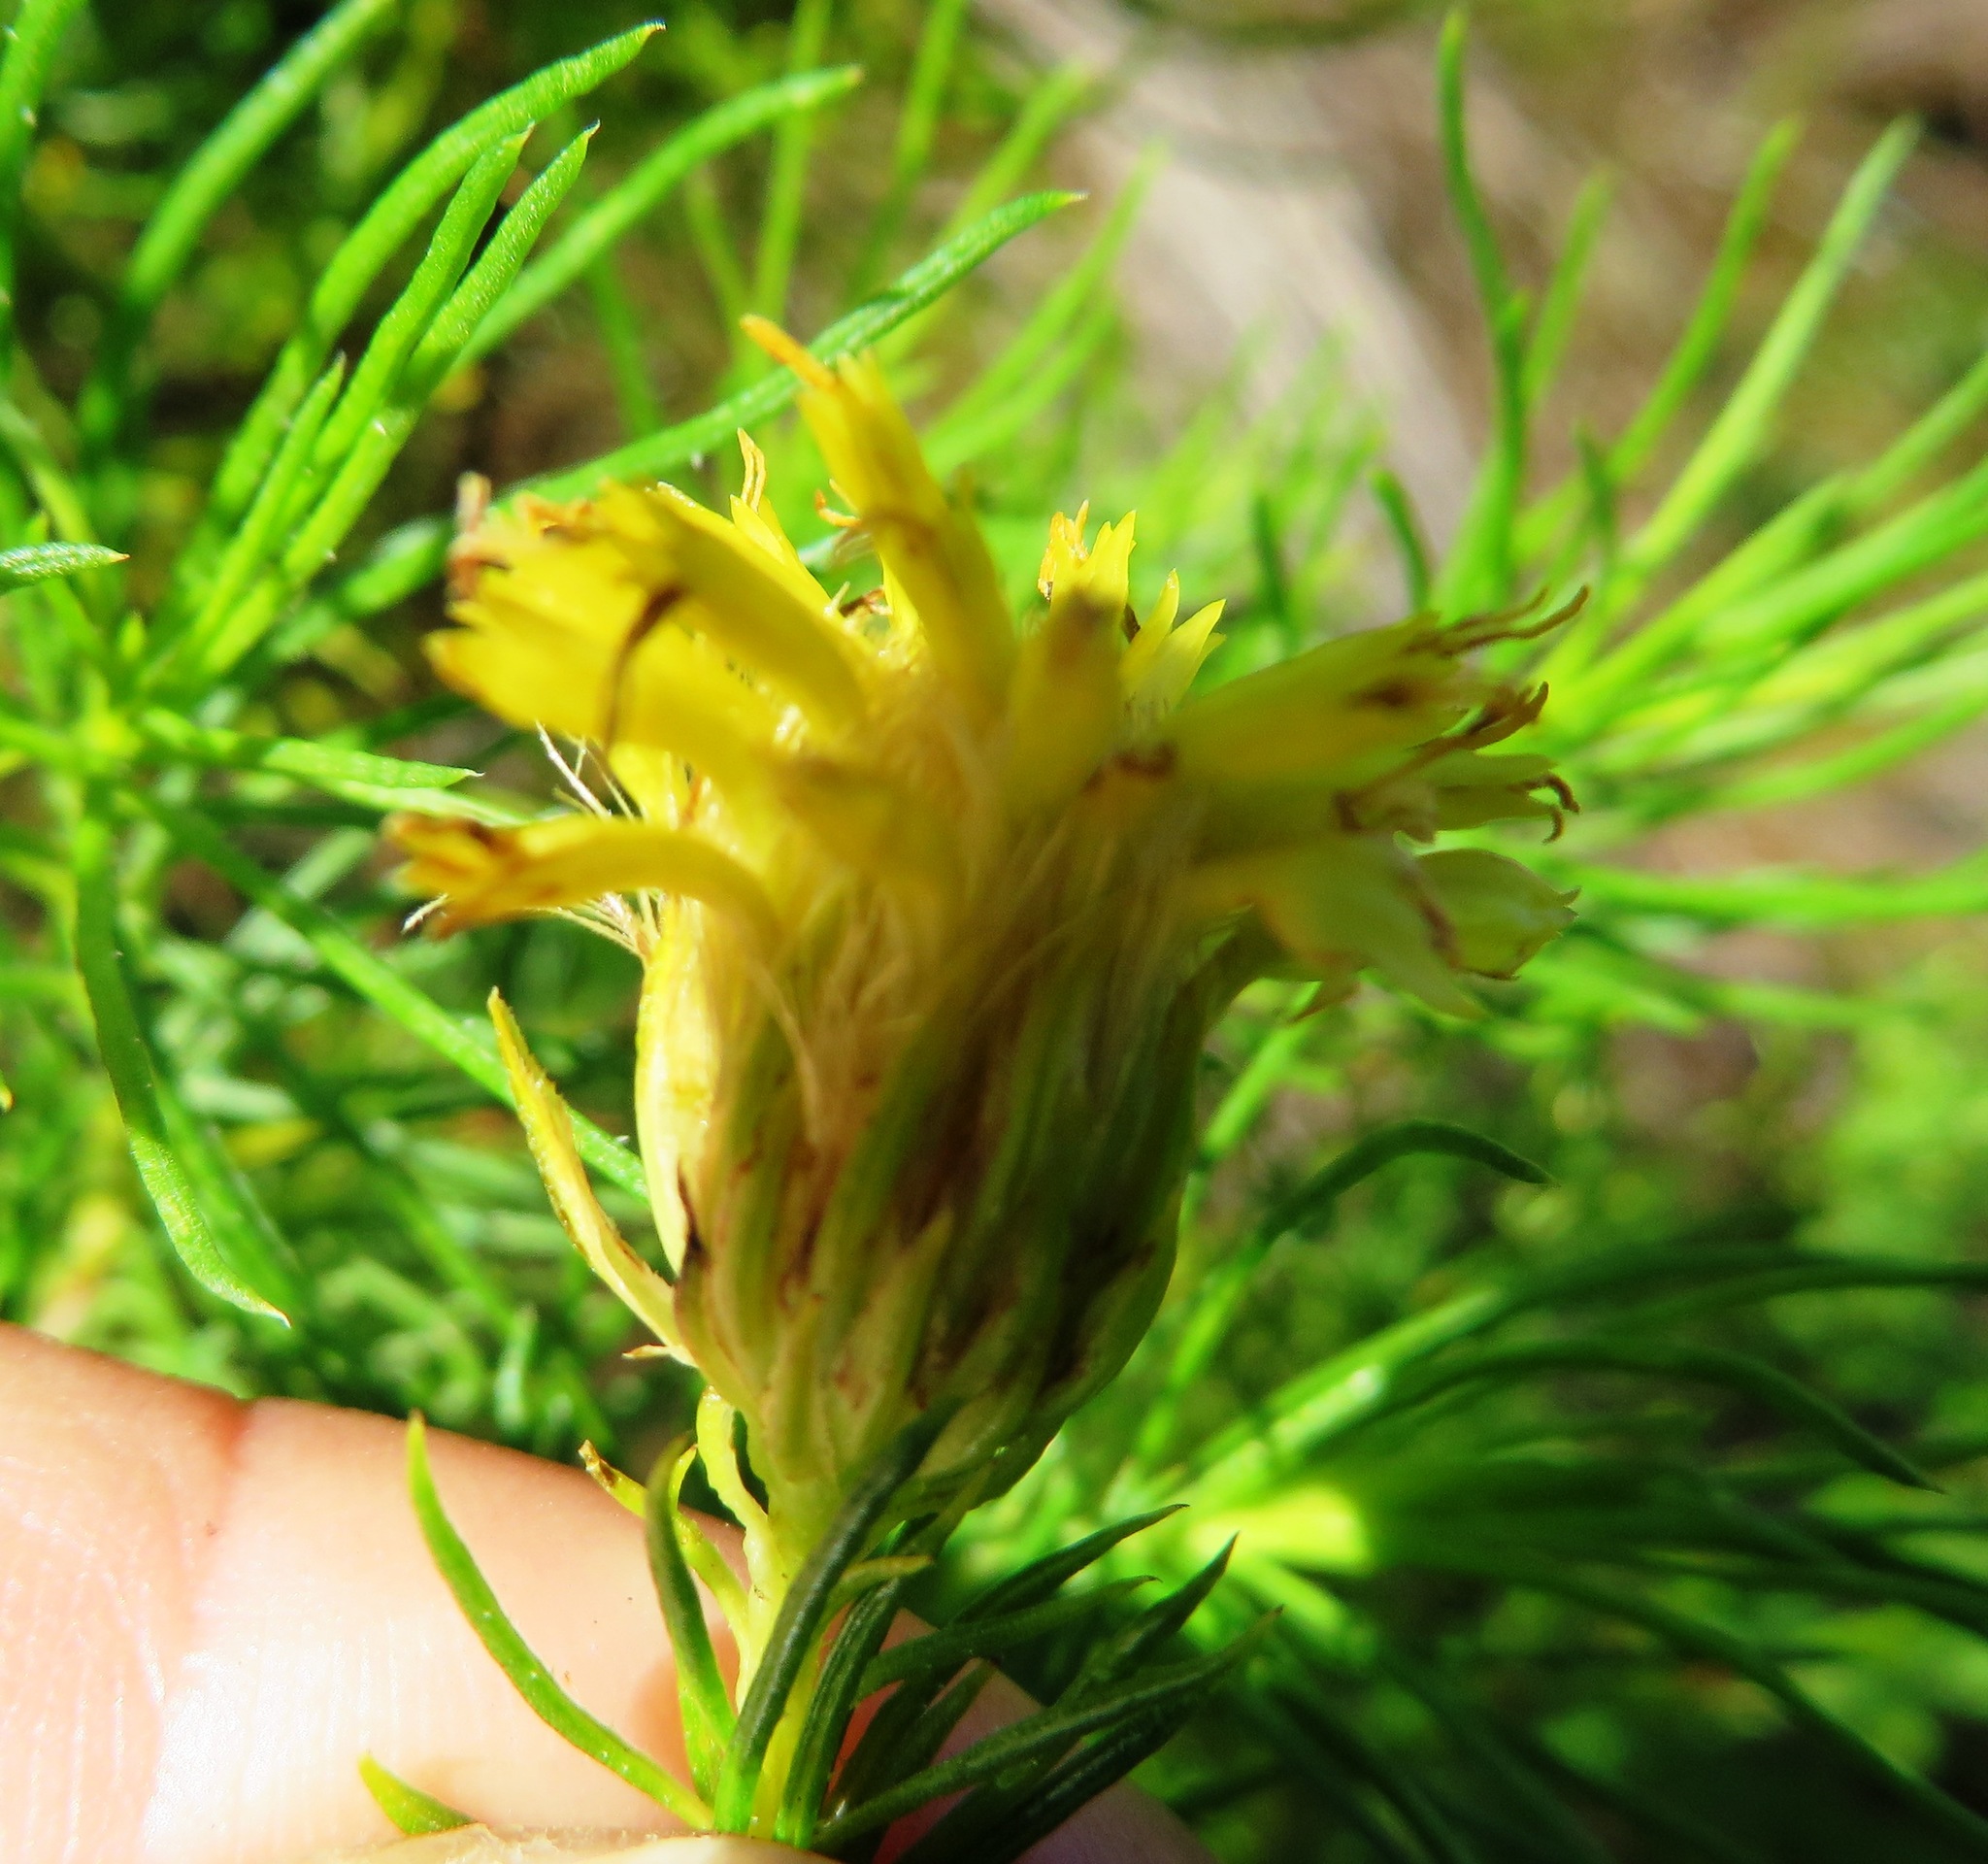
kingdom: Plantae
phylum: Tracheophyta
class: Magnoliopsida
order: Asterales
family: Asteraceae
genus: Pteronia
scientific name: Pteronia camphorata
